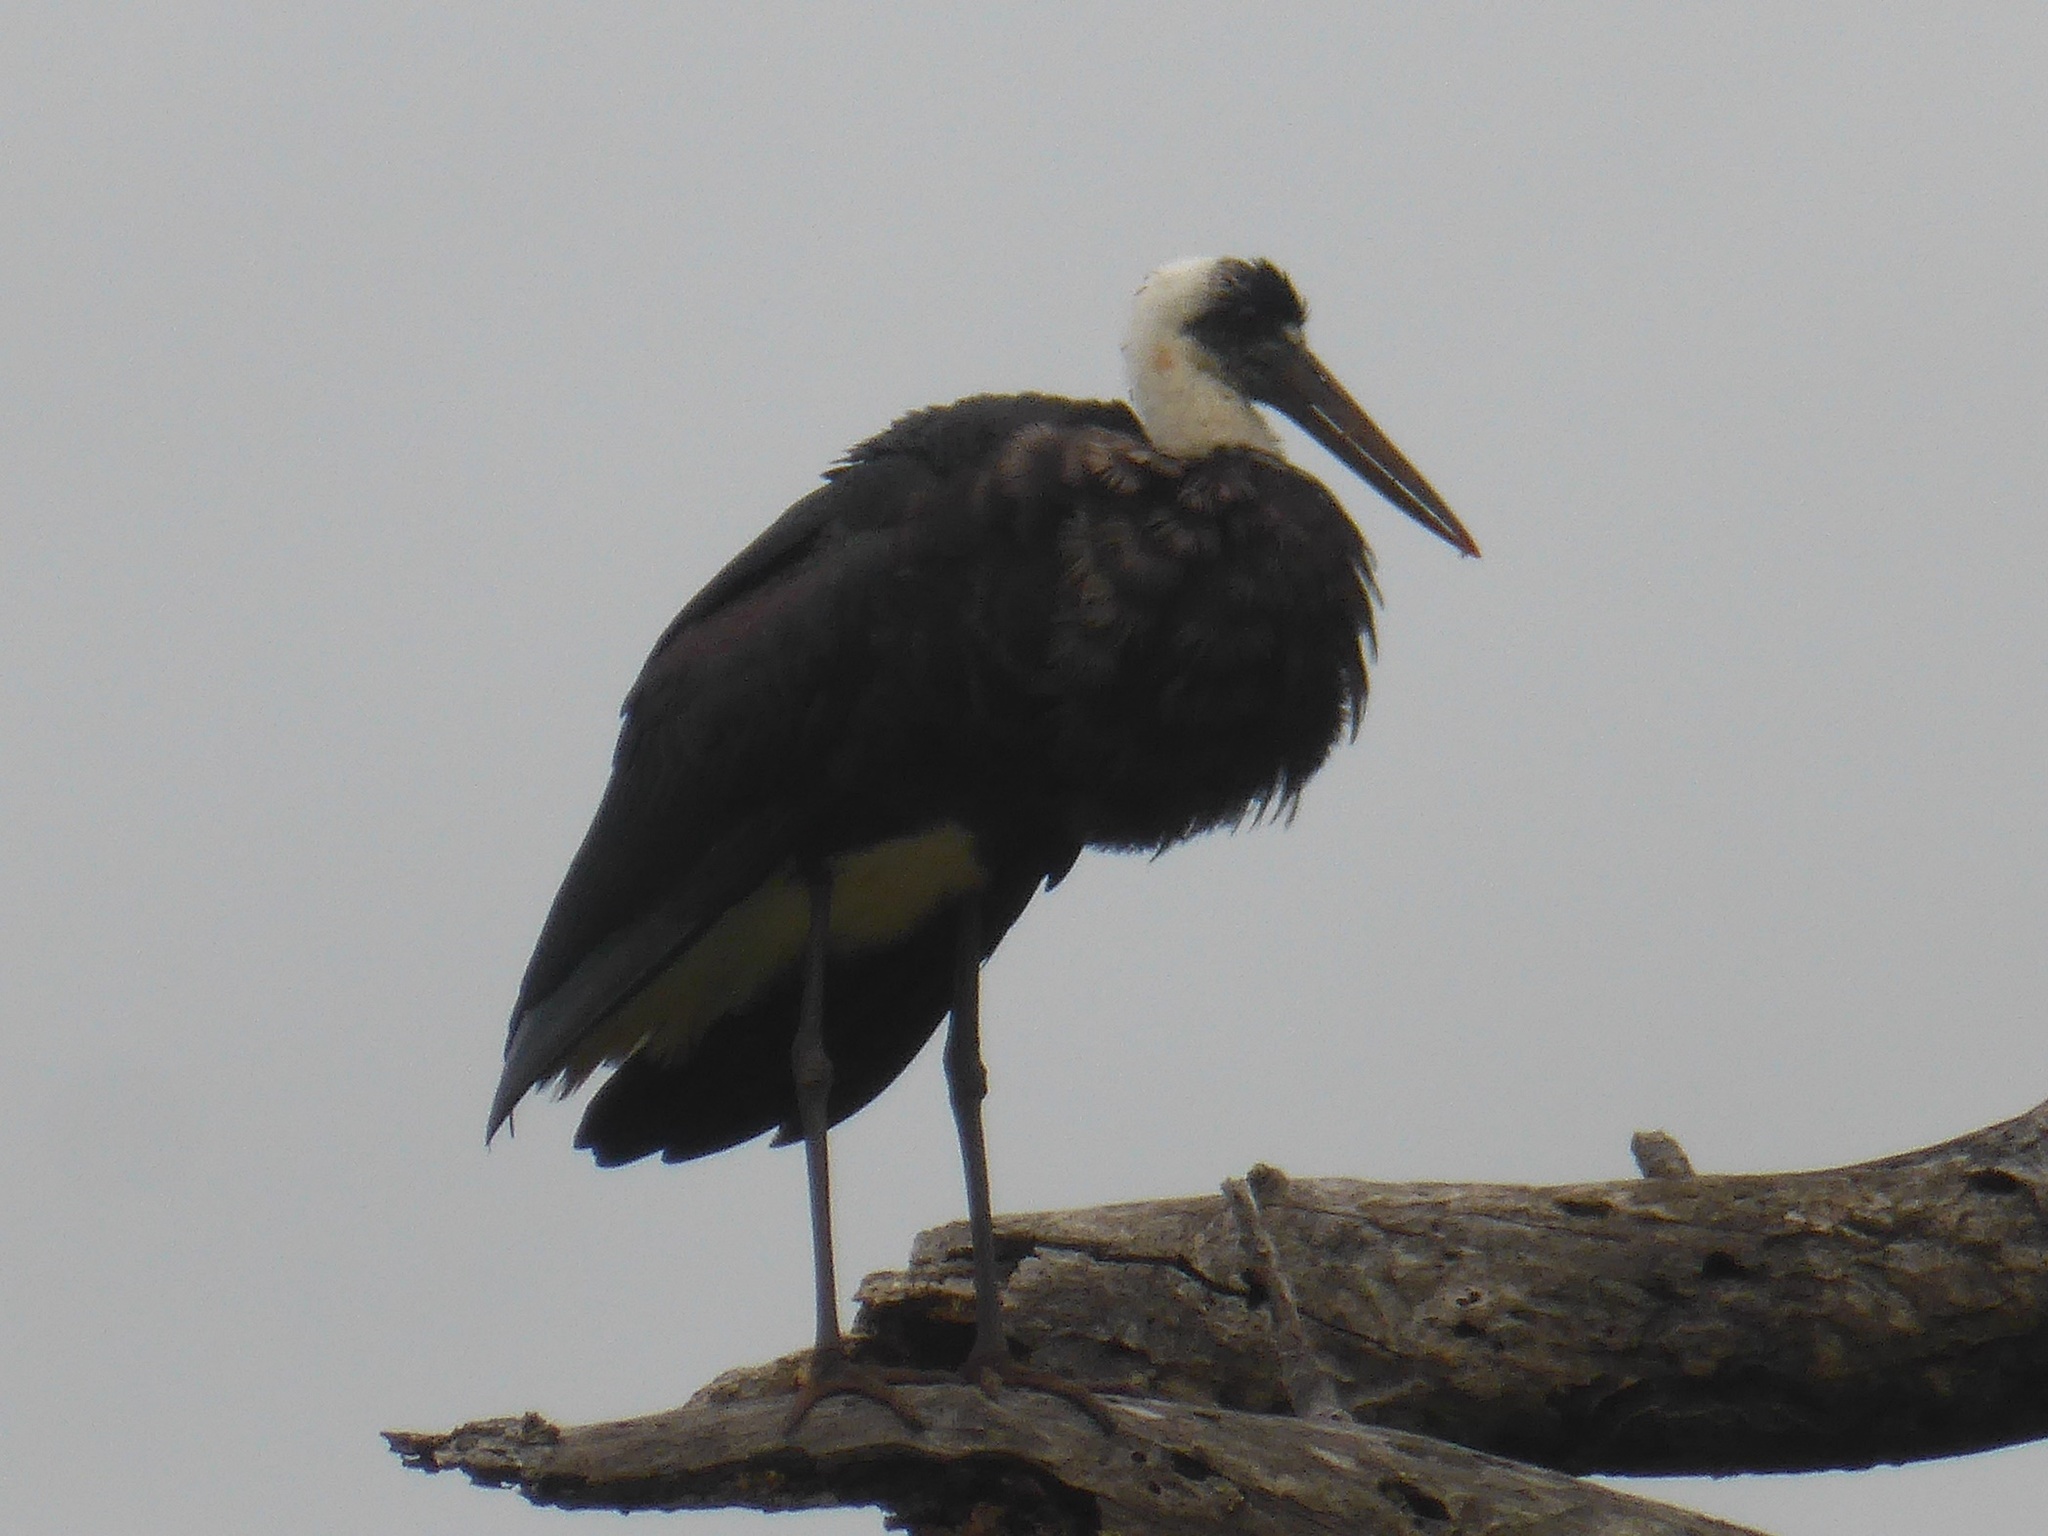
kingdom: Animalia
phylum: Chordata
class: Aves
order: Ciconiiformes
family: Ciconiidae
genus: Ciconia
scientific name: Ciconia microscelis
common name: African woollyneck
